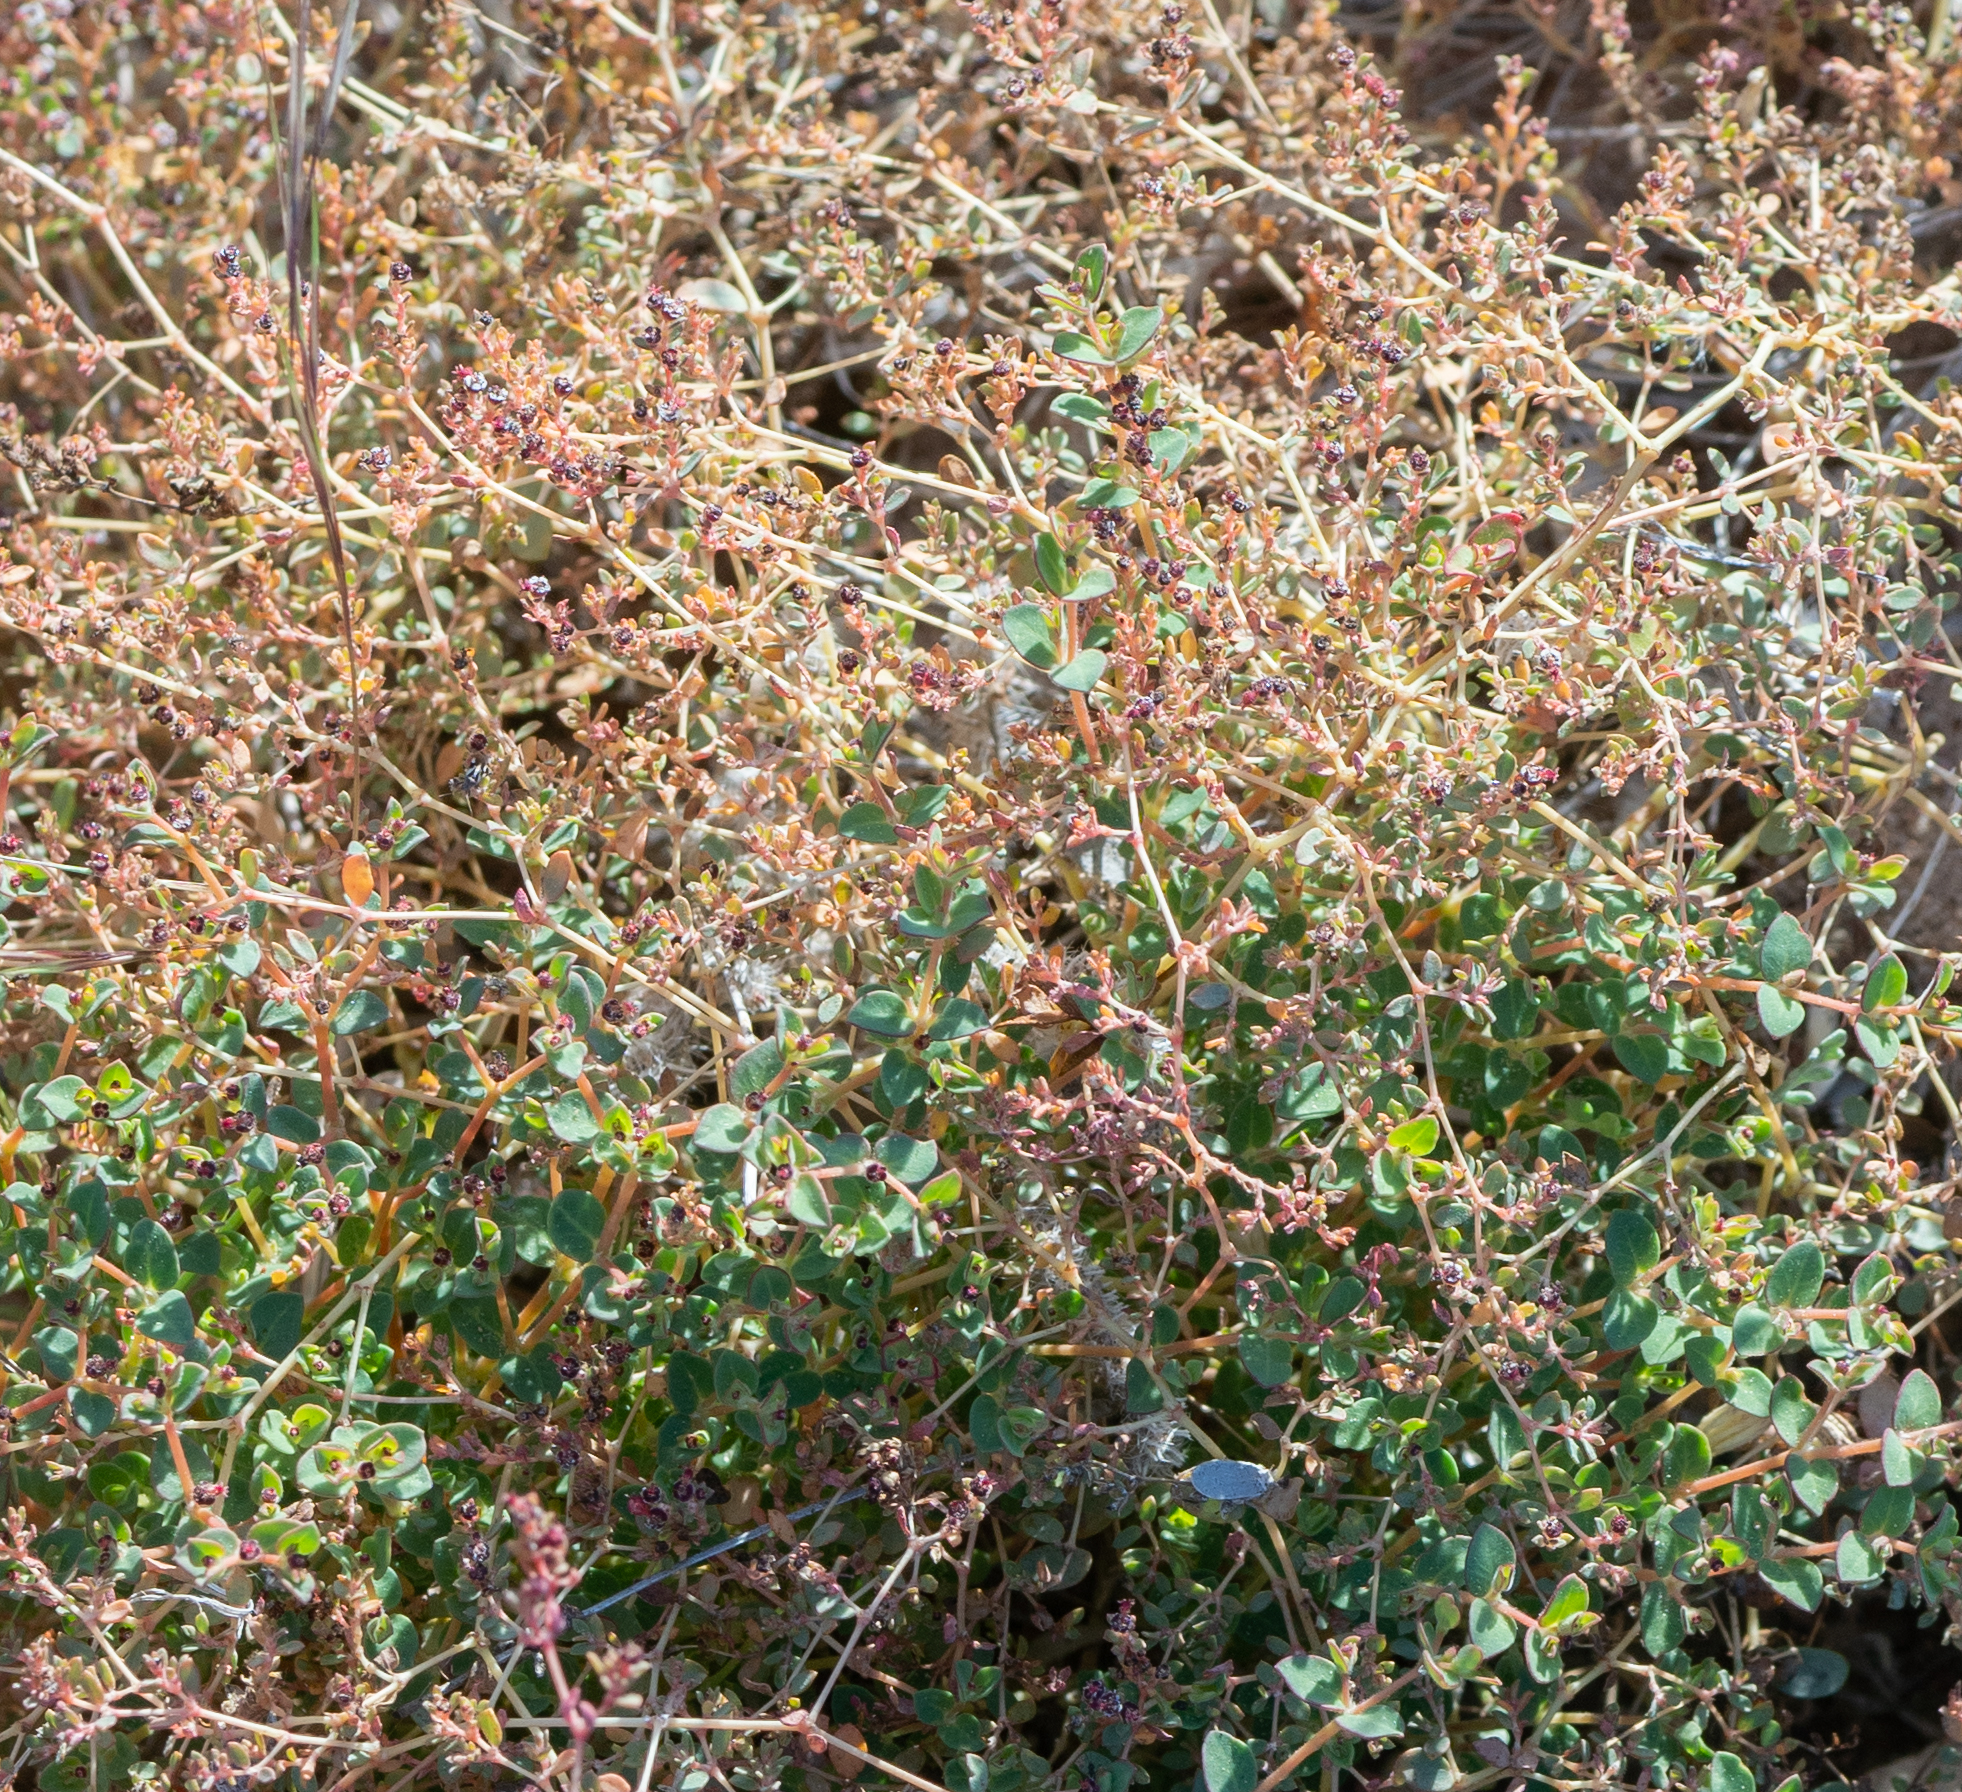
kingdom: Plantae
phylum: Tracheophyta
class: Magnoliopsida
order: Malpighiales
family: Euphorbiaceae
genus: Euphorbia
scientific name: Euphorbia polycarpa
